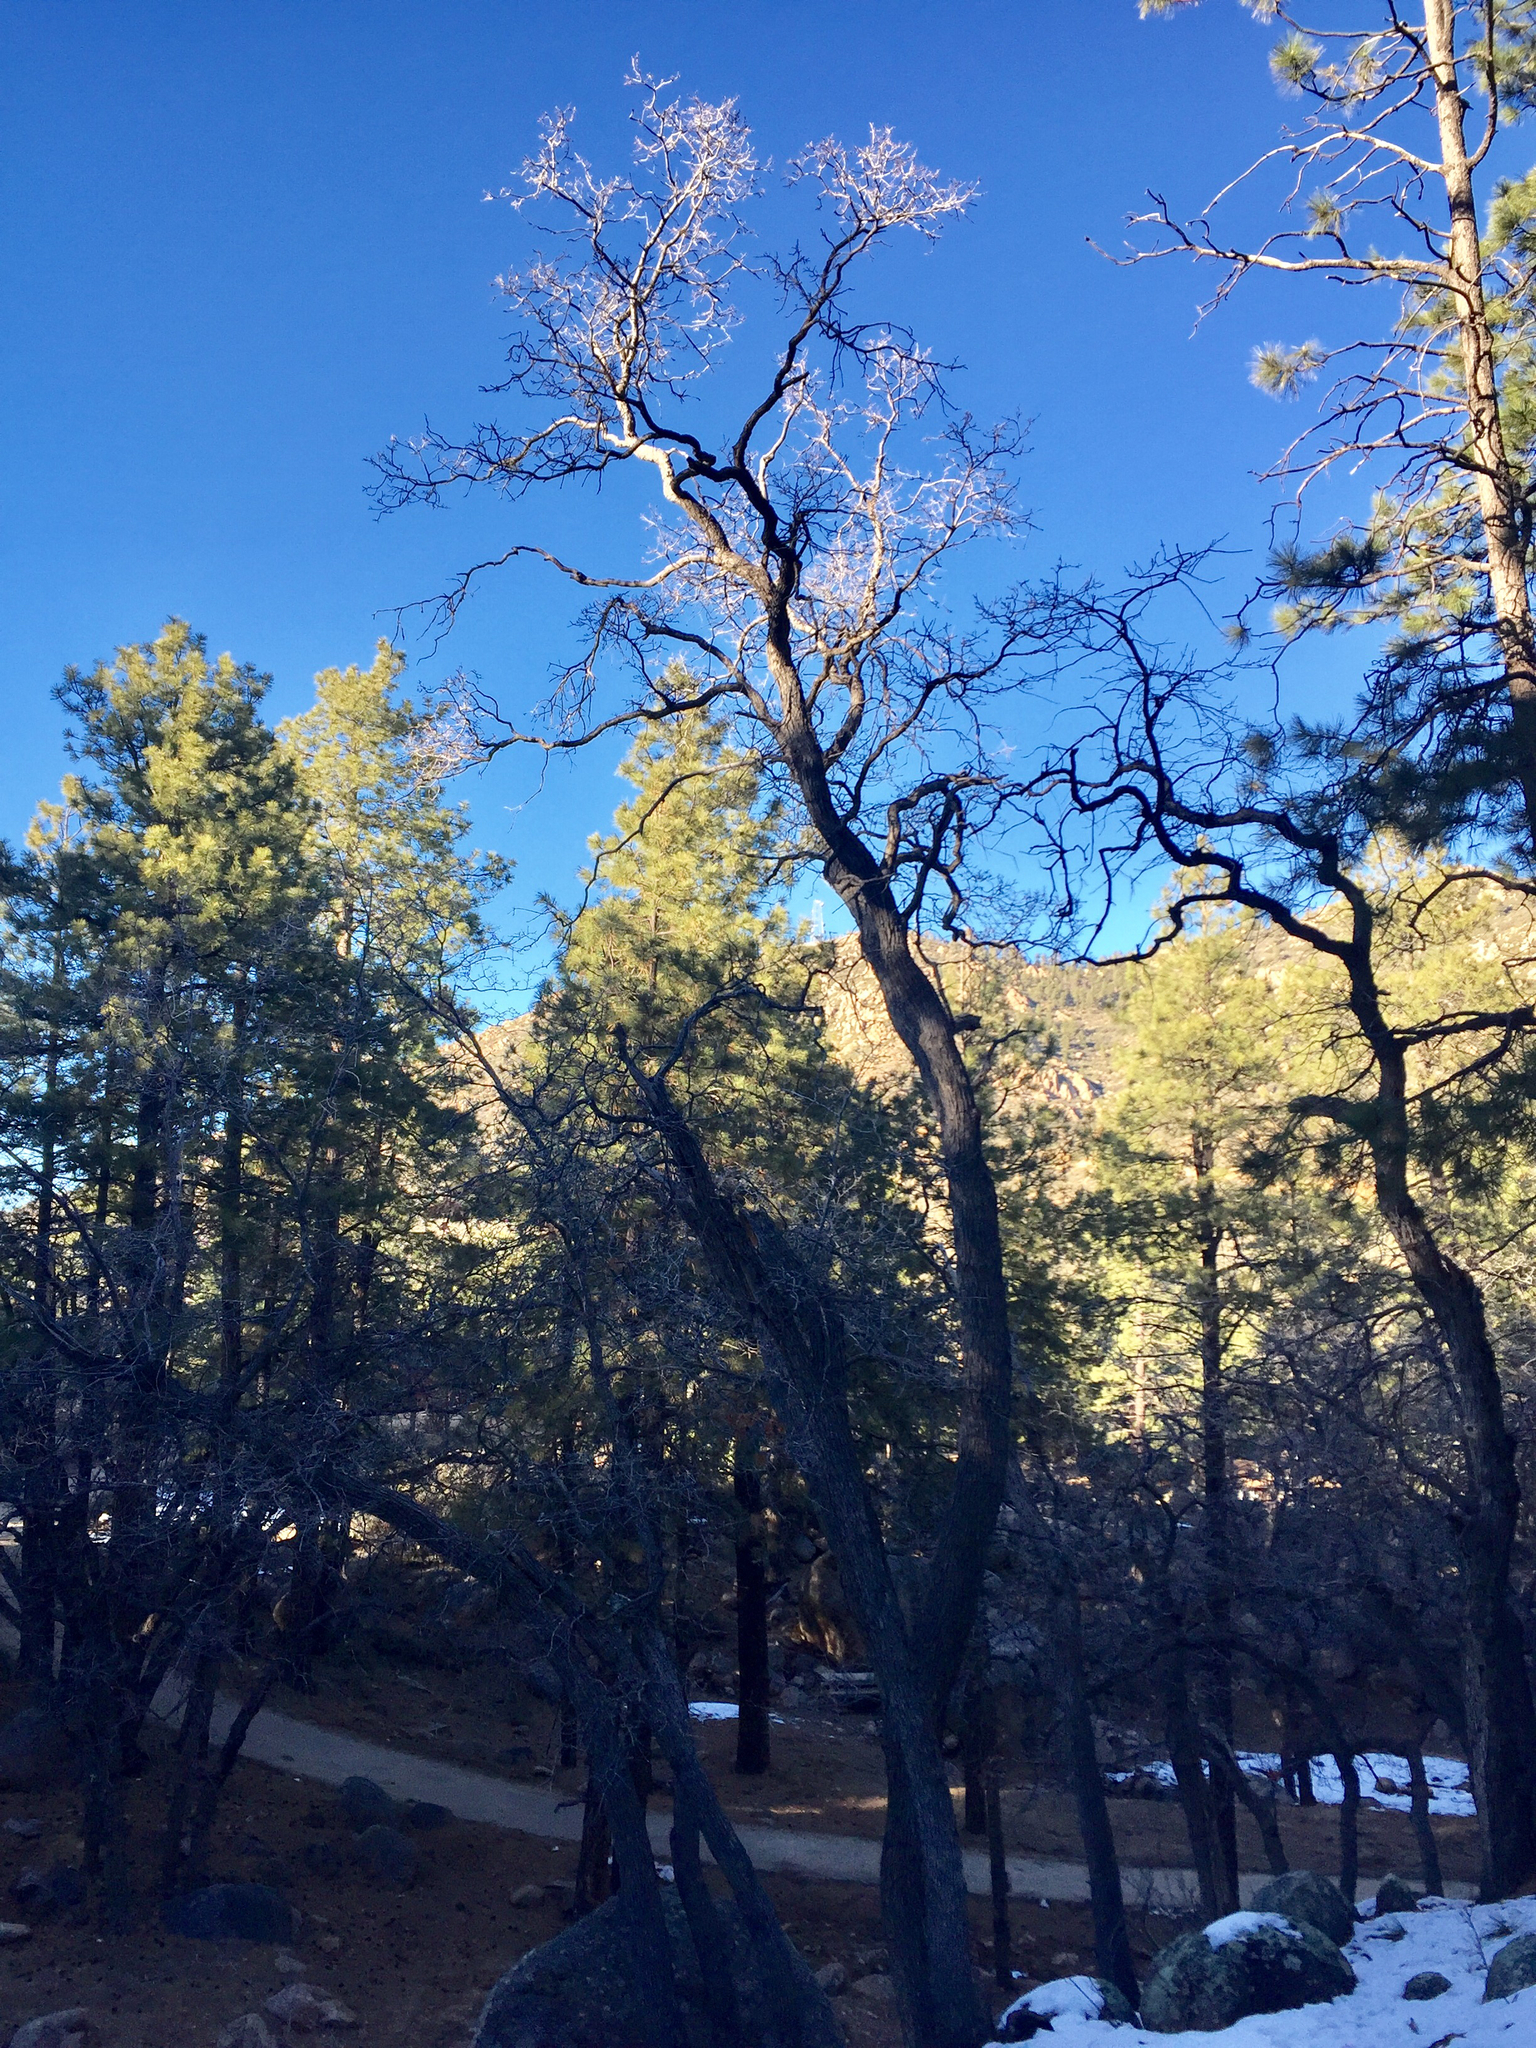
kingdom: Plantae
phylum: Tracheophyta
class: Magnoliopsida
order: Fagales
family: Fagaceae
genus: Quercus
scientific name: Quercus gambelii
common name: Gambel oak
